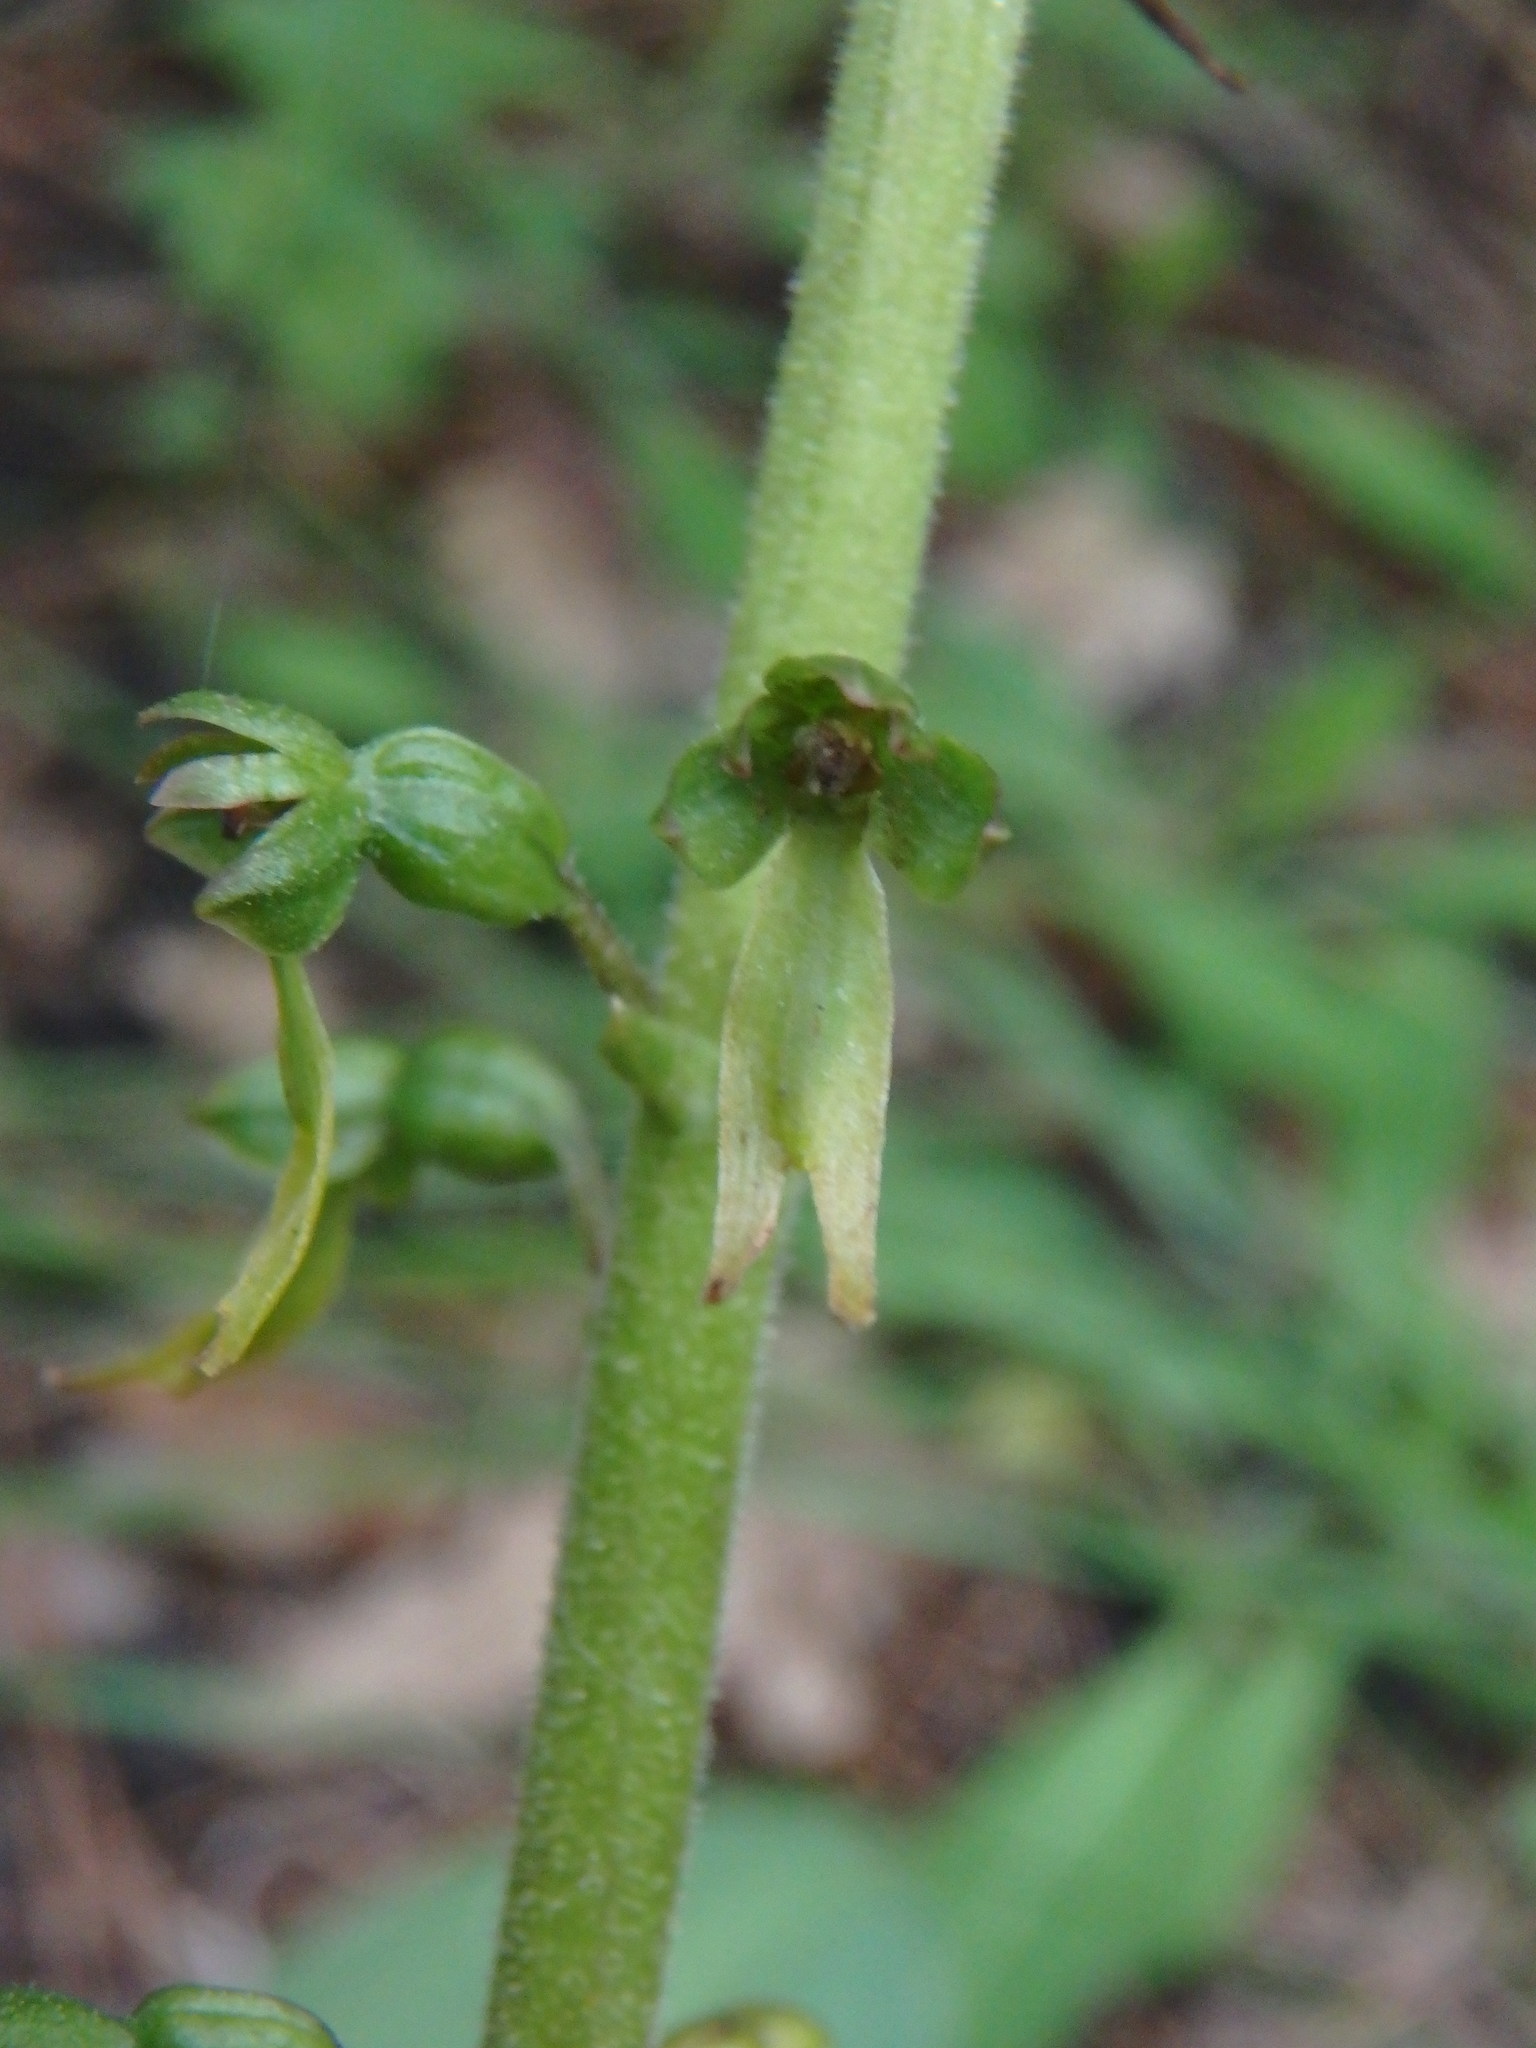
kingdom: Plantae
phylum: Tracheophyta
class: Liliopsida
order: Asparagales
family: Orchidaceae
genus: Neottia
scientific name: Neottia ovata
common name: Common twayblade
